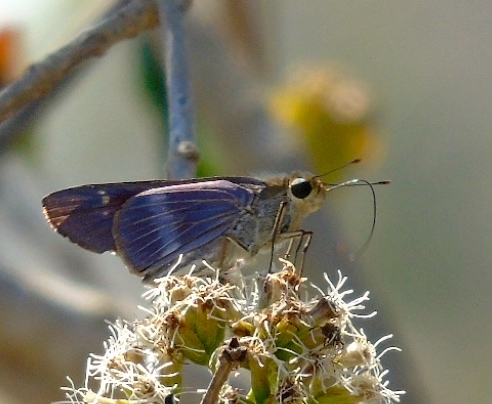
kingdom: Animalia
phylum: Arthropoda
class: Insecta
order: Lepidoptera
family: Hesperiidae
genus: Panoquina
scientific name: Panoquina
